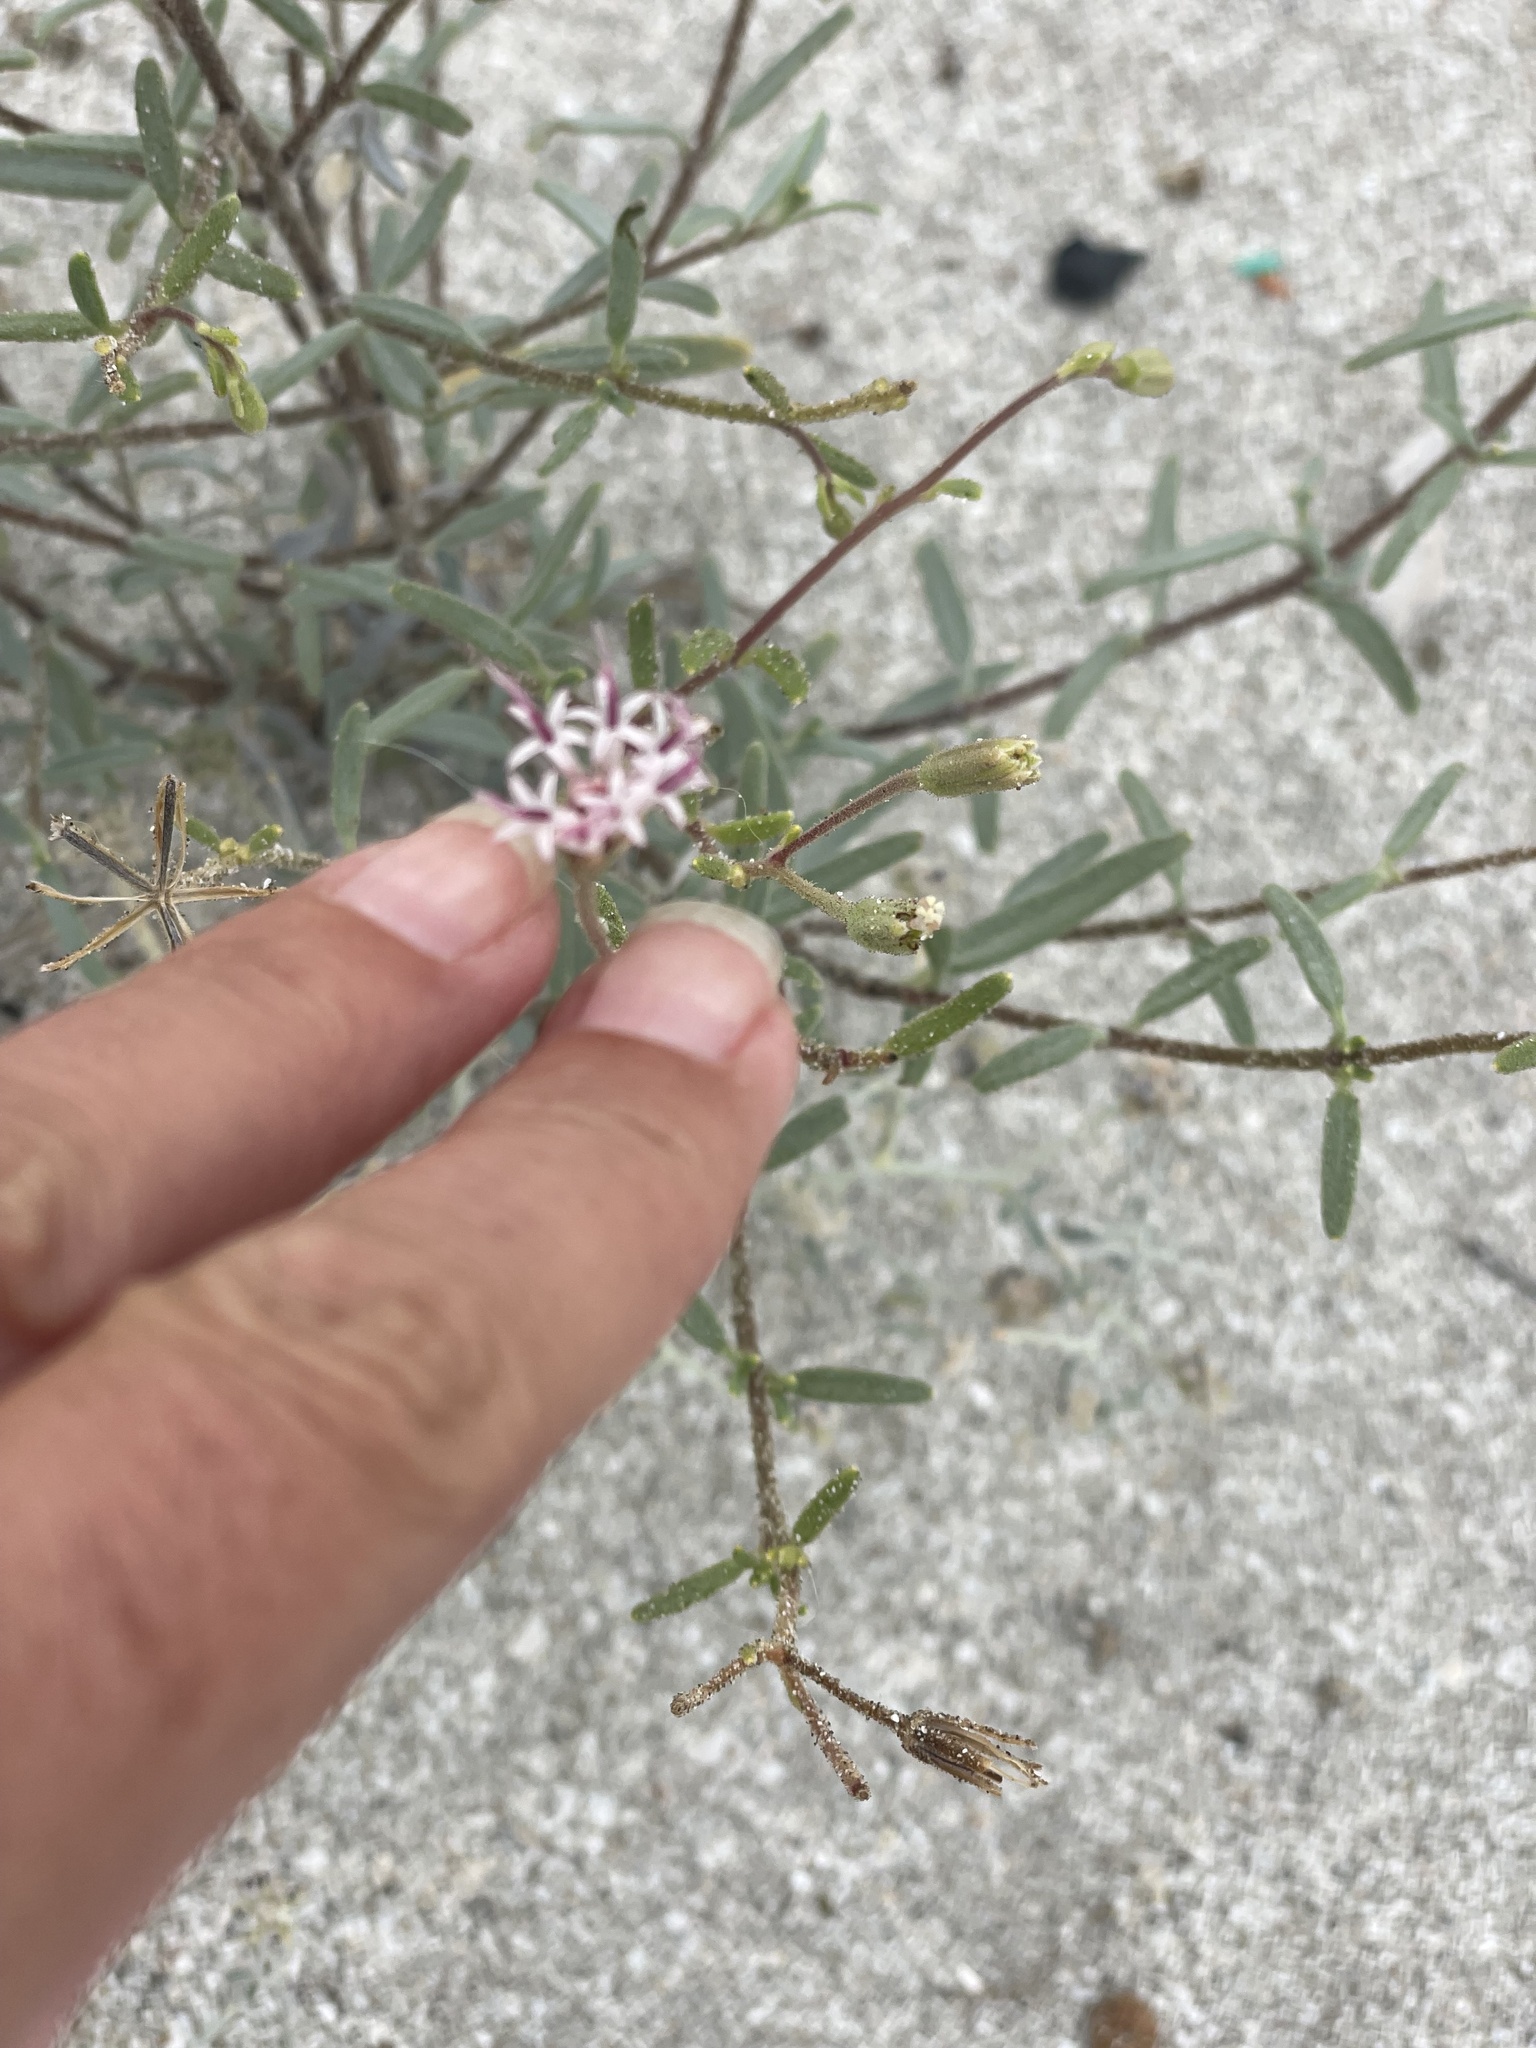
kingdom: Plantae
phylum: Tracheophyta
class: Magnoliopsida
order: Asterales
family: Asteraceae
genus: Palafoxia
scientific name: Palafoxia linearis
